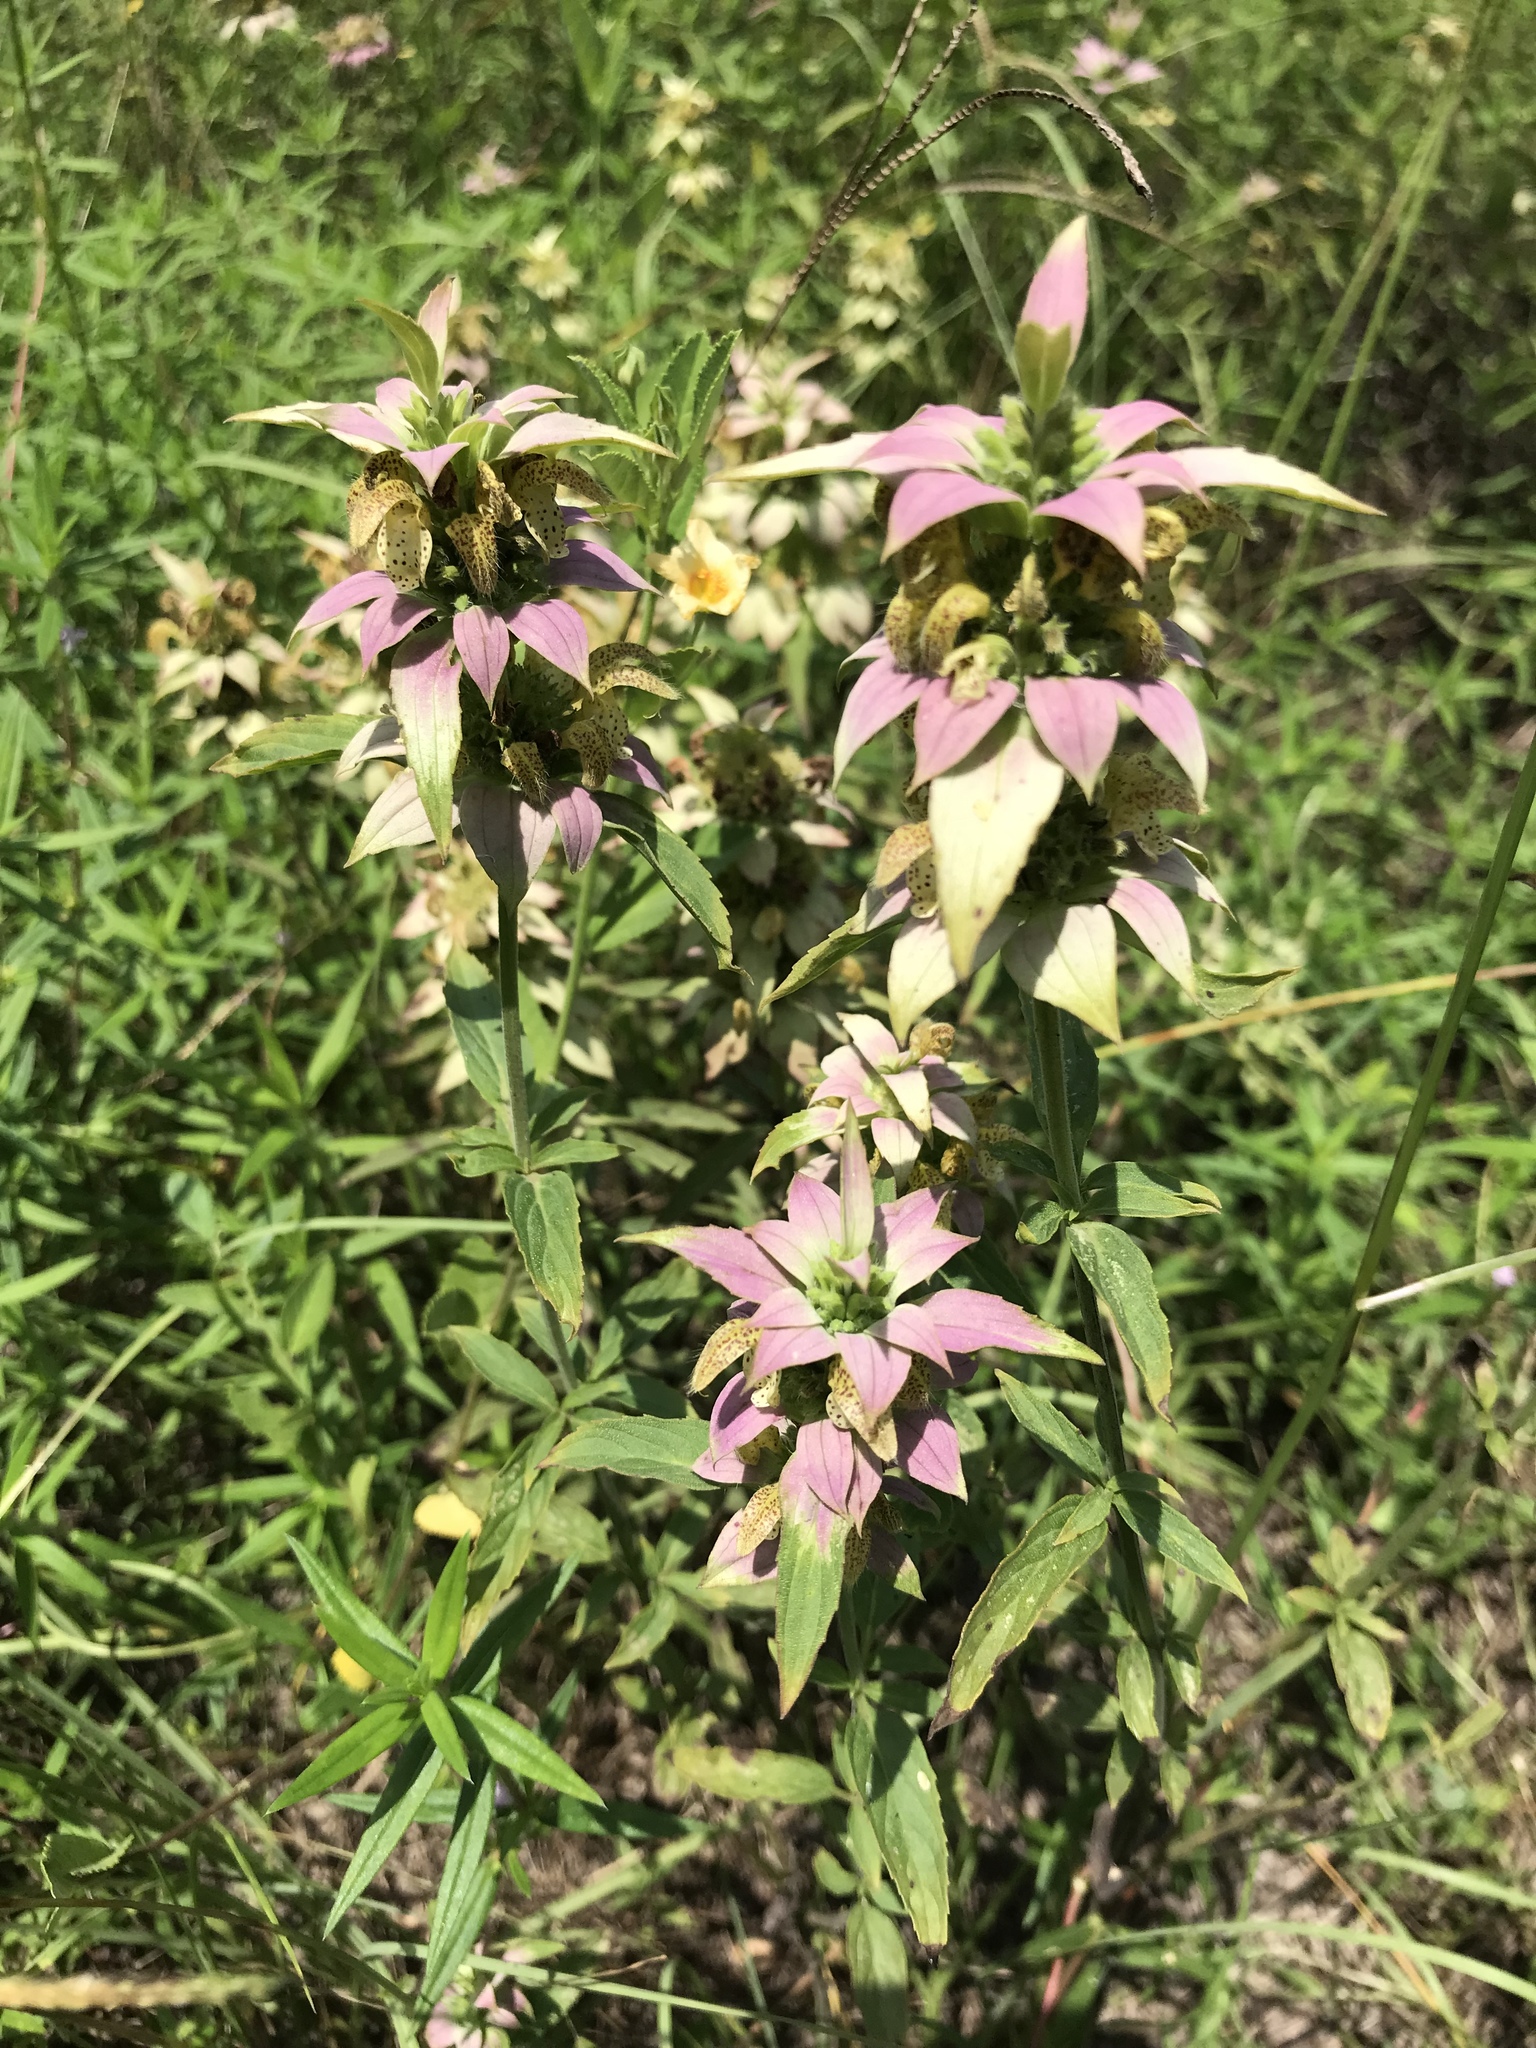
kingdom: Plantae
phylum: Tracheophyta
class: Magnoliopsida
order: Lamiales
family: Lamiaceae
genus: Monarda
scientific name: Monarda punctata
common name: Dotted monarda
